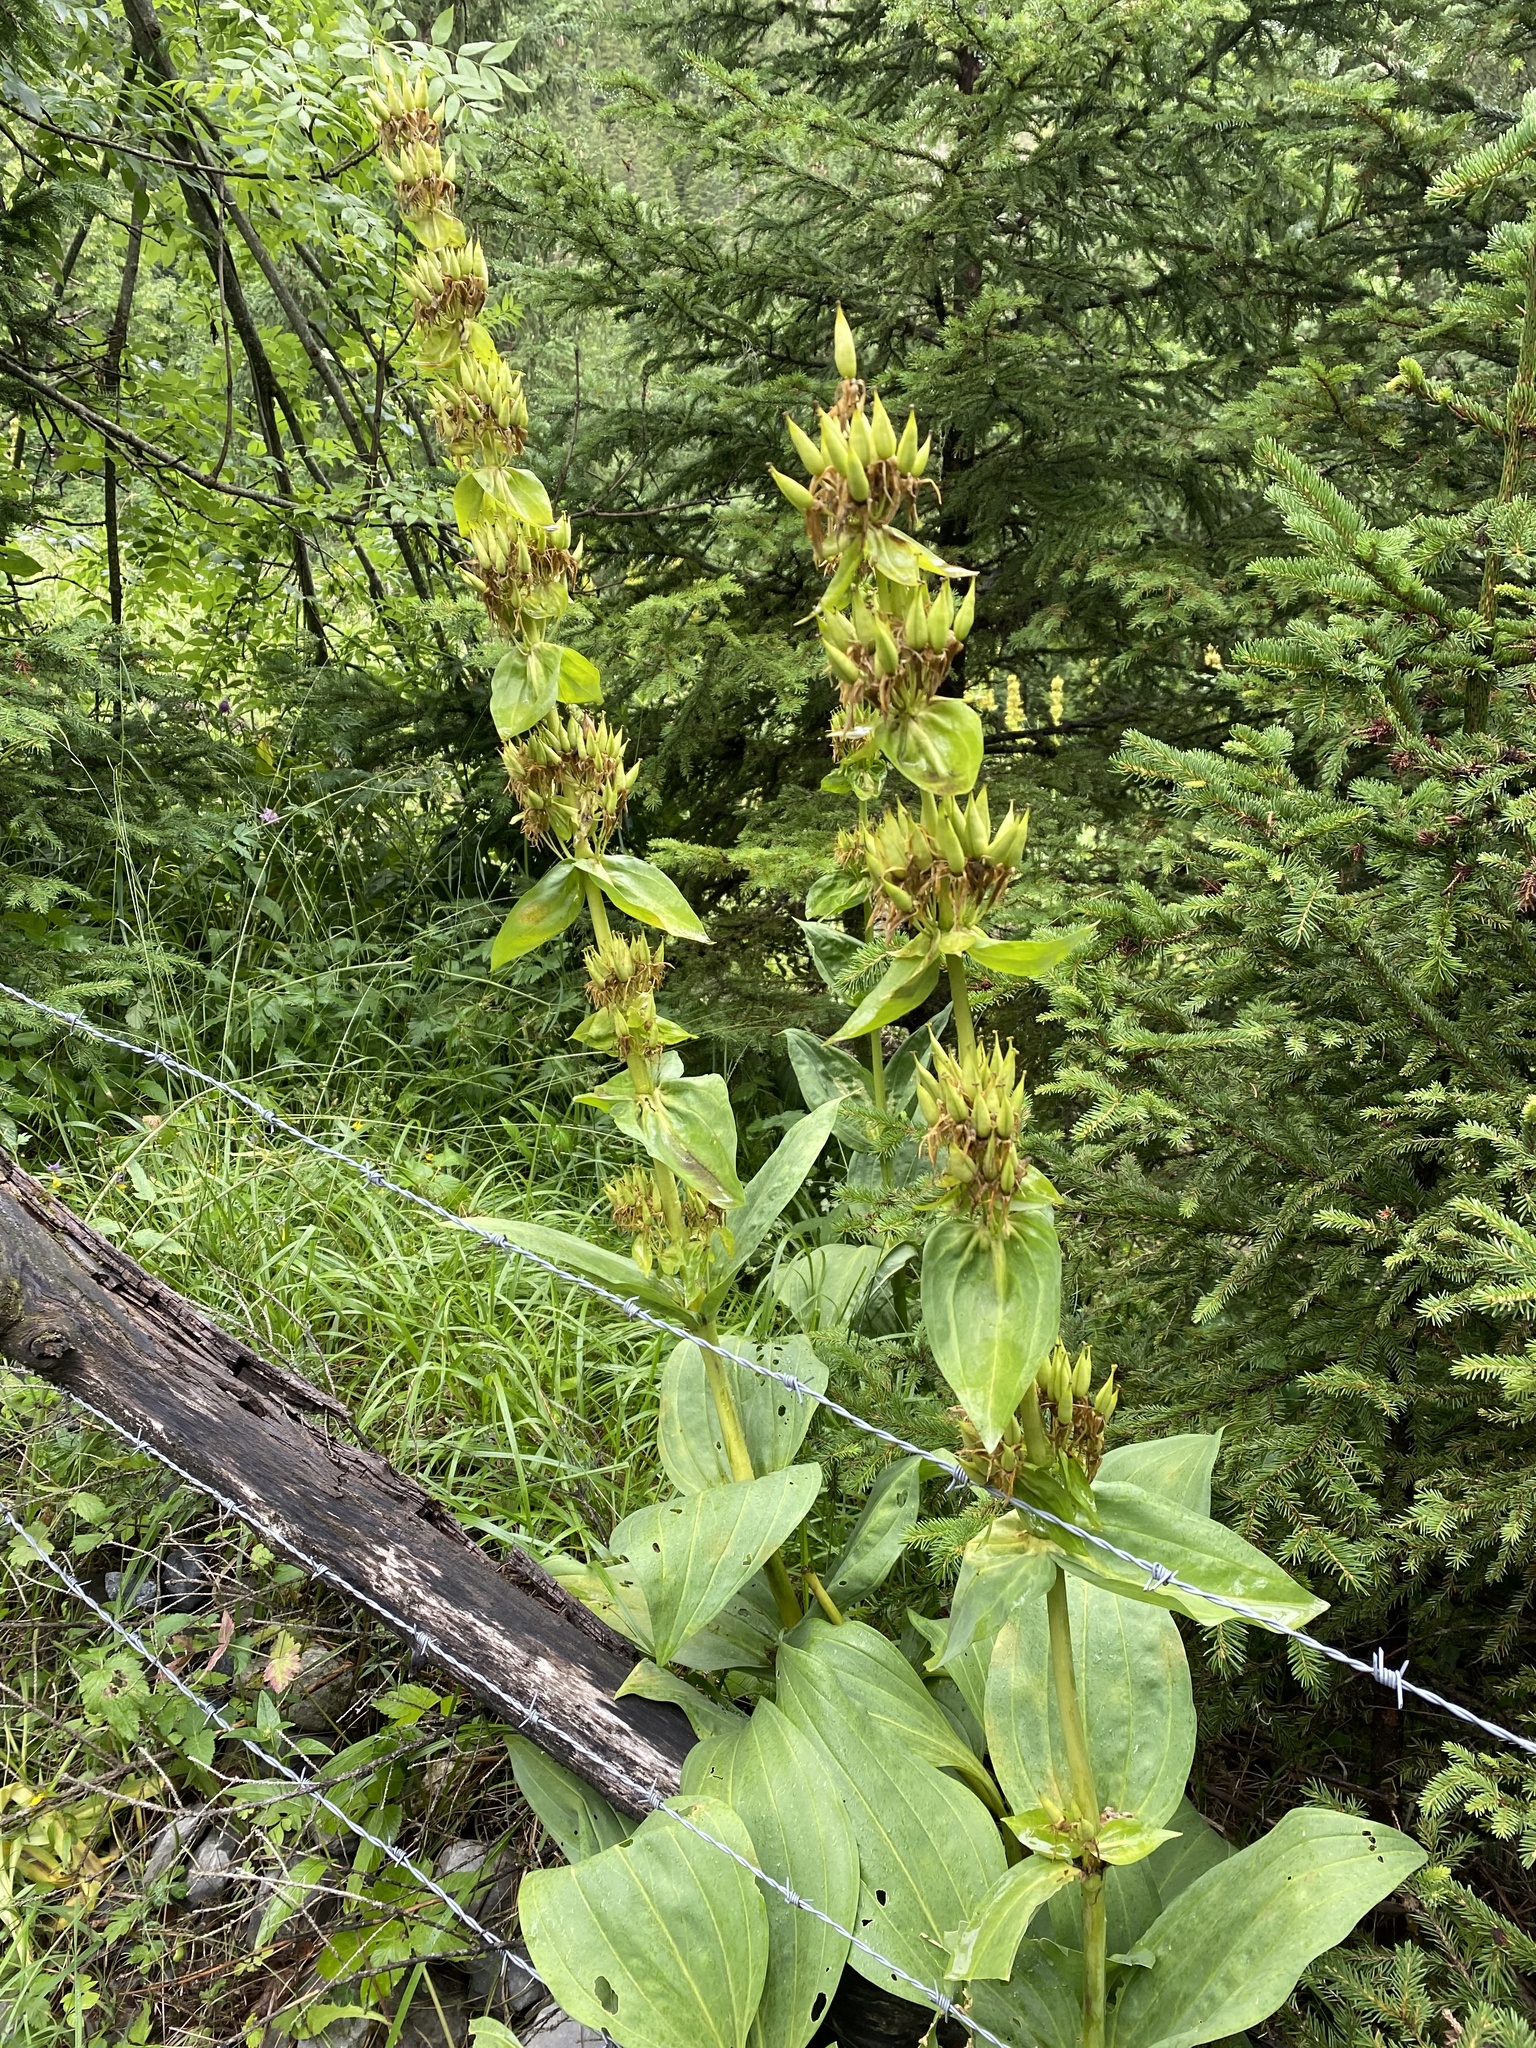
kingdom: Plantae
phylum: Tracheophyta
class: Magnoliopsida
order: Gentianales
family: Gentianaceae
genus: Gentiana
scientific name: Gentiana lutea
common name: Great yellow gentian
